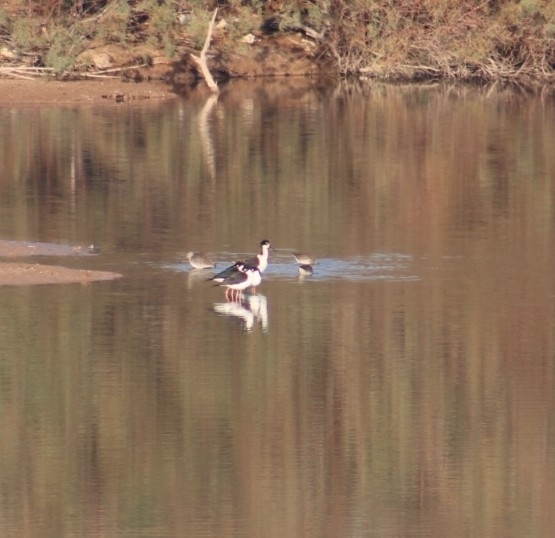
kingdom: Animalia
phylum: Chordata
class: Aves
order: Charadriiformes
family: Recurvirostridae
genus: Himantopus
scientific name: Himantopus mexicanus
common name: Black-necked stilt
